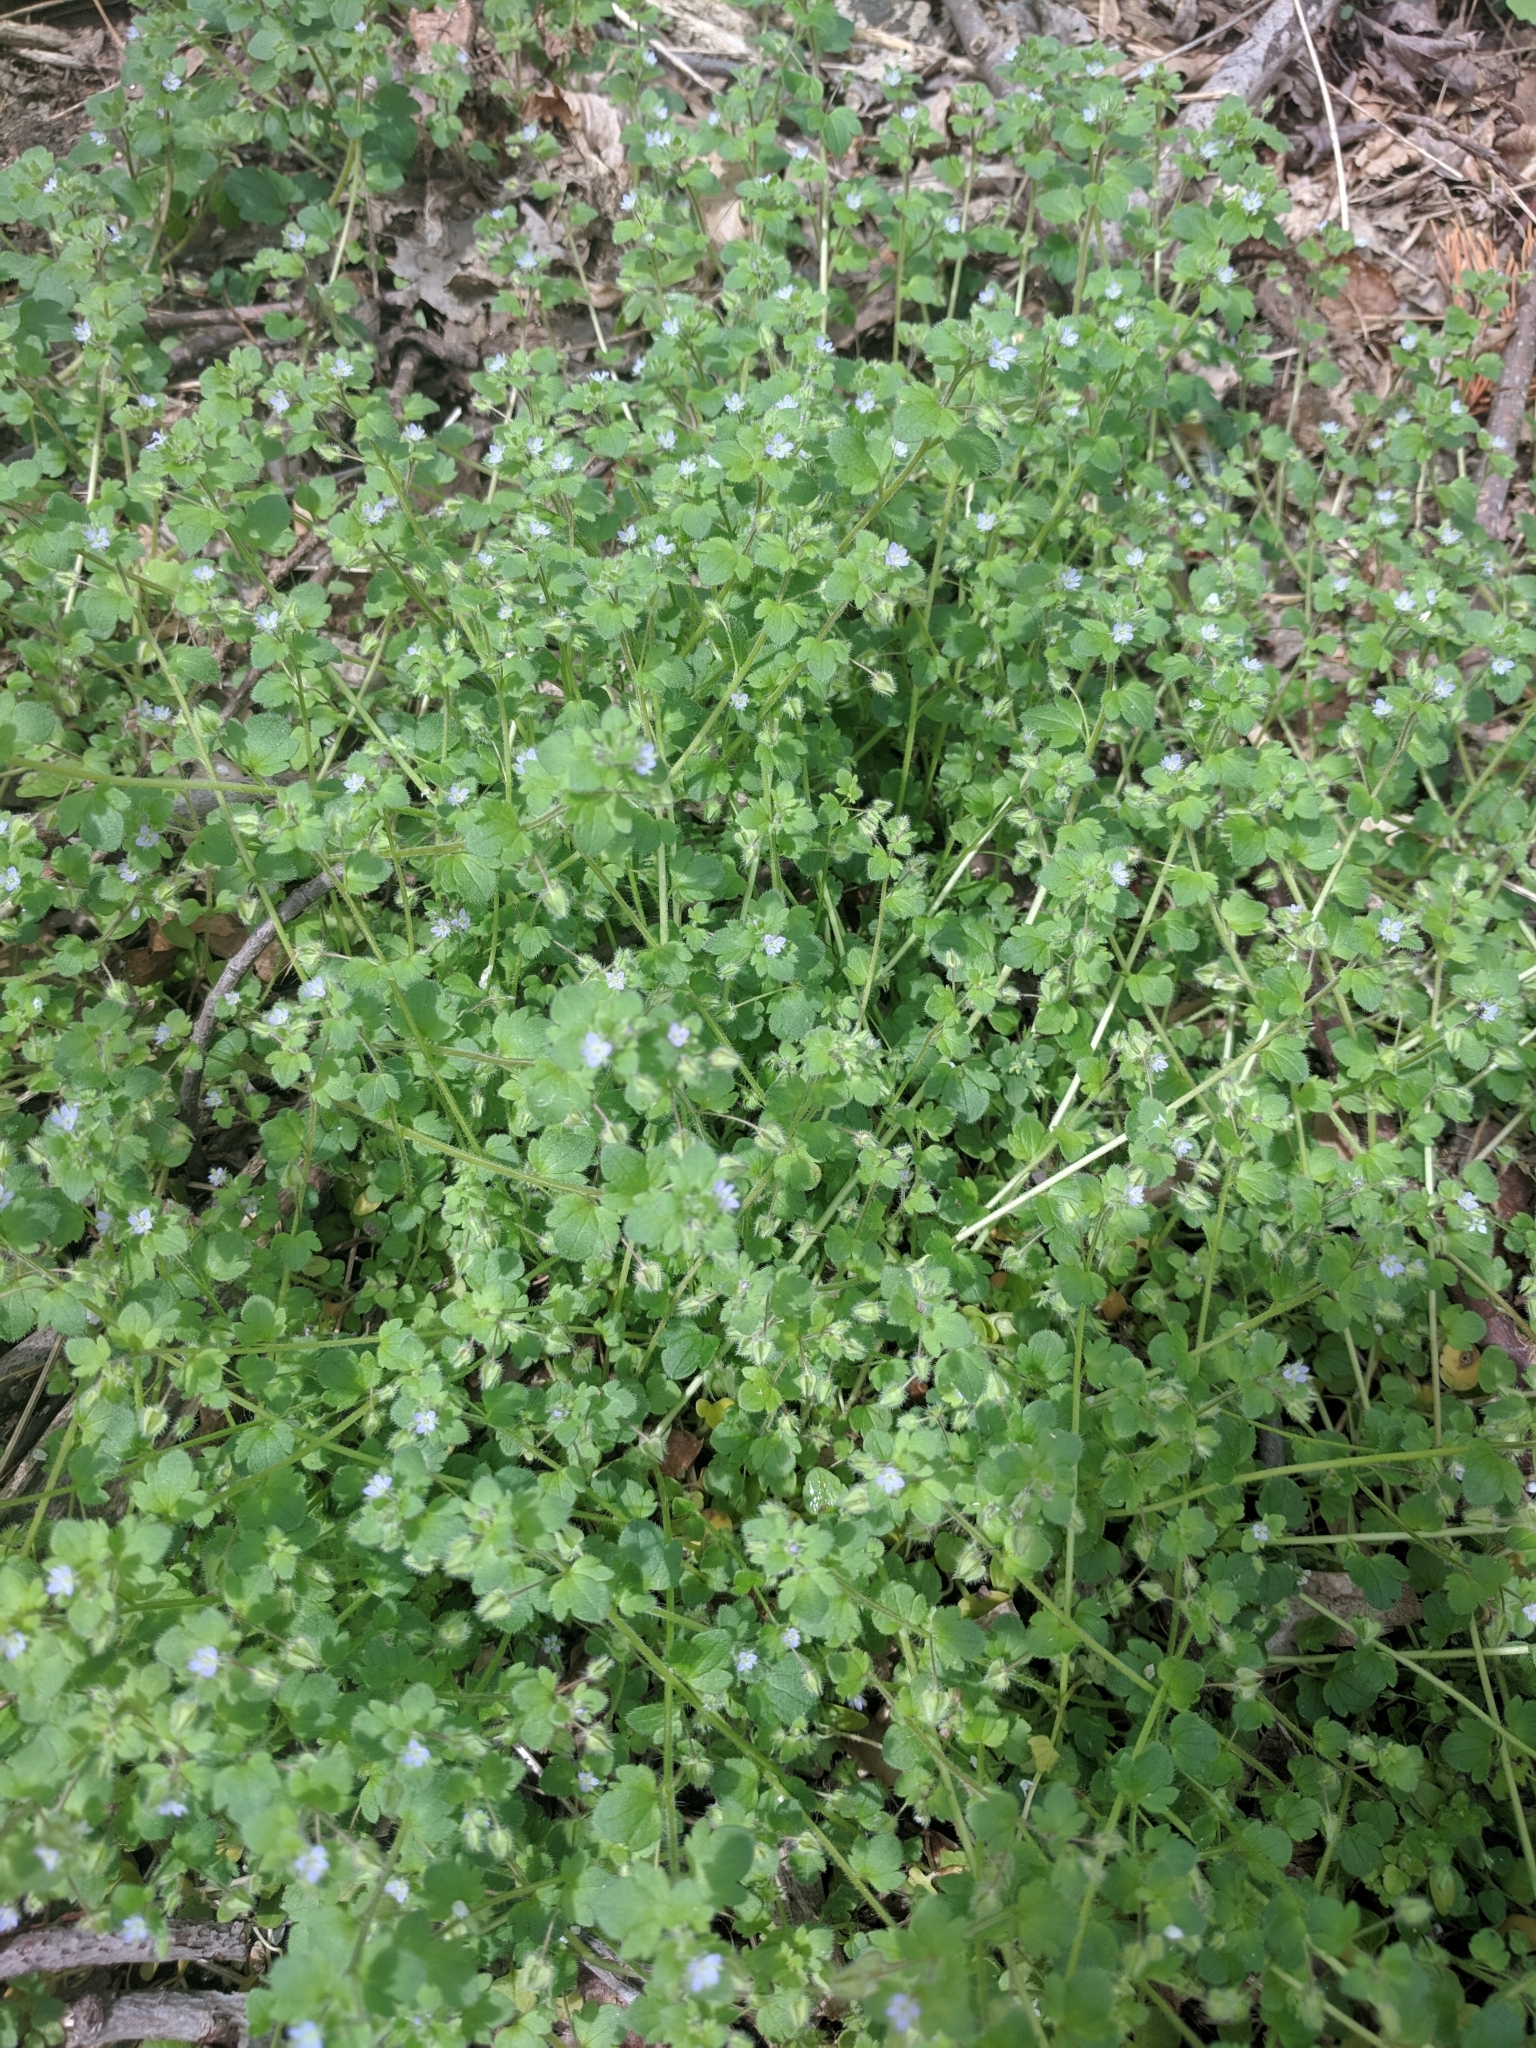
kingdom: Plantae
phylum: Tracheophyta
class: Magnoliopsida
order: Lamiales
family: Plantaginaceae
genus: Veronica
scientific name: Veronica hederifolia
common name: Ivy-leaved speedwell
